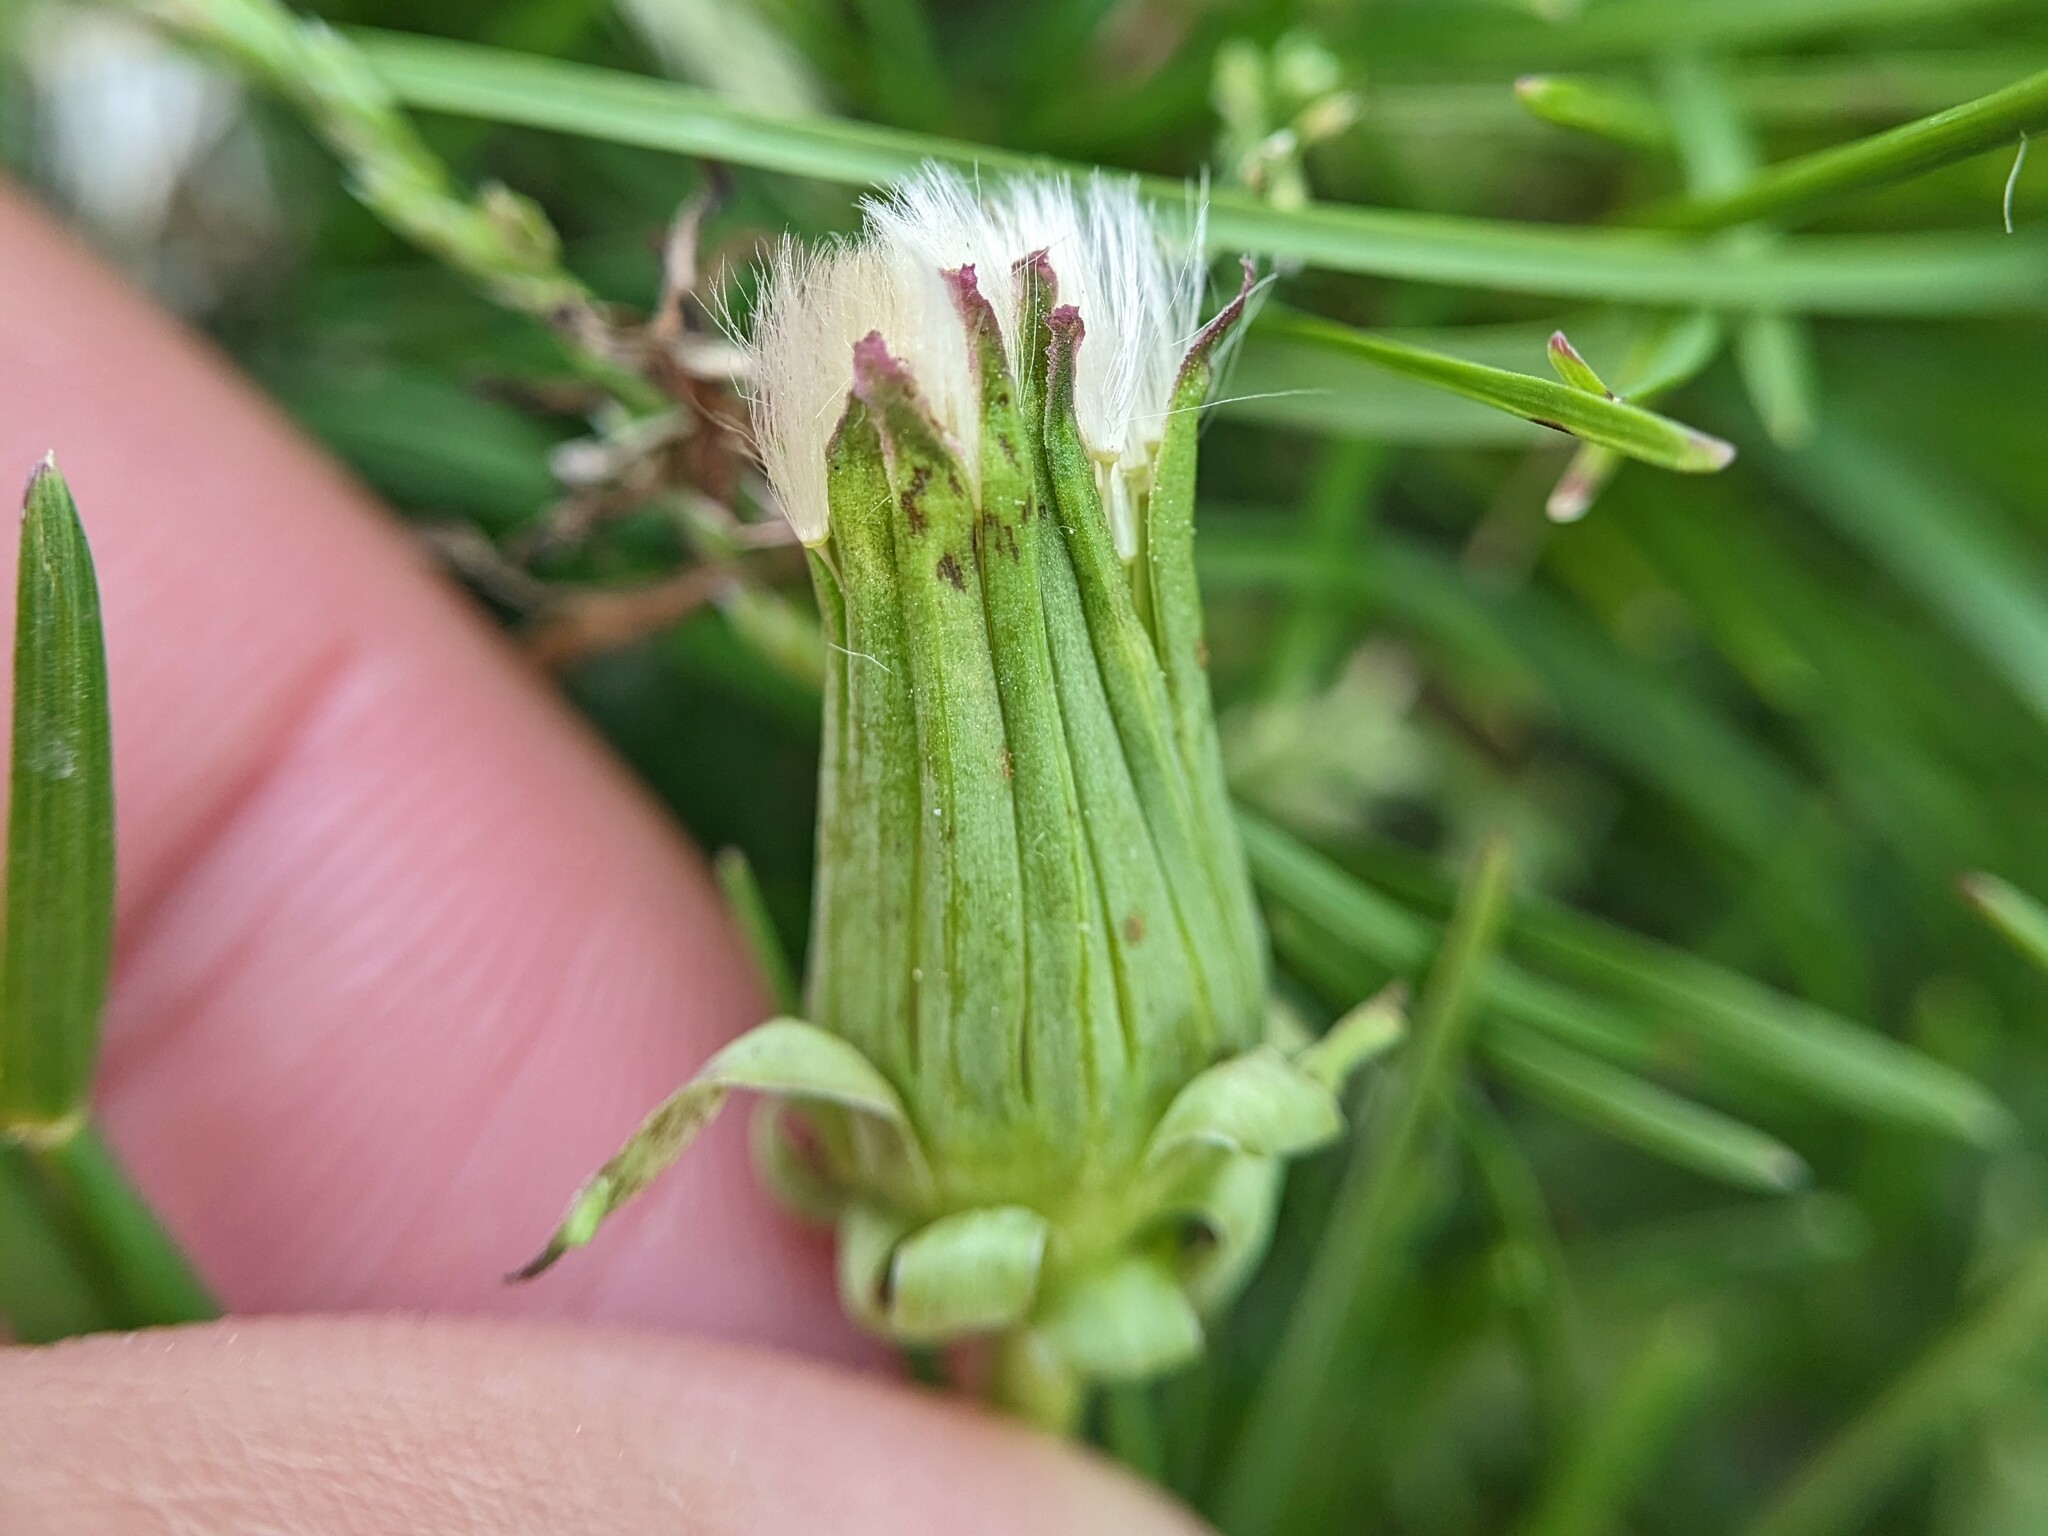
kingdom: Plantae
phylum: Tracheophyta
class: Magnoliopsida
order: Asterales
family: Asteraceae
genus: Taraxacum
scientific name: Taraxacum erythrospermum
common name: Rock dandelion
